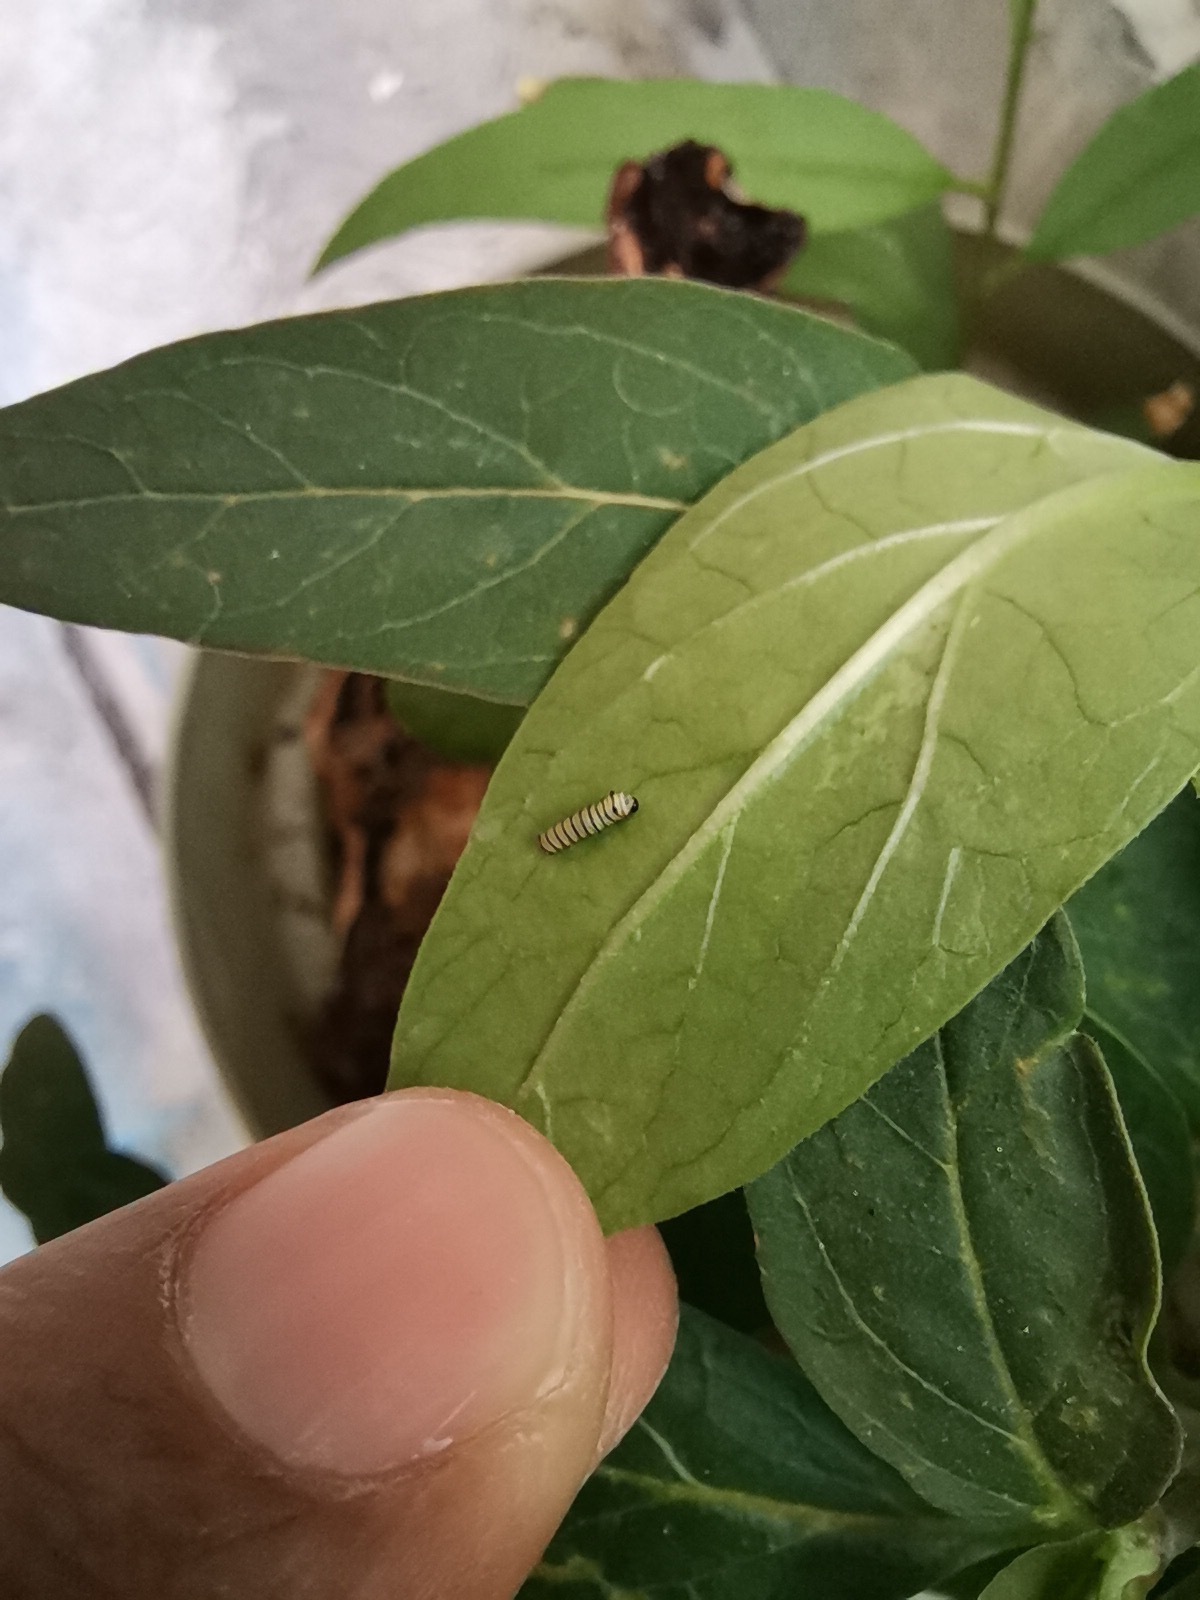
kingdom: Animalia
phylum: Arthropoda
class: Insecta
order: Lepidoptera
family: Nymphalidae
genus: Danaus
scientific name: Danaus plexippus
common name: Monarch
